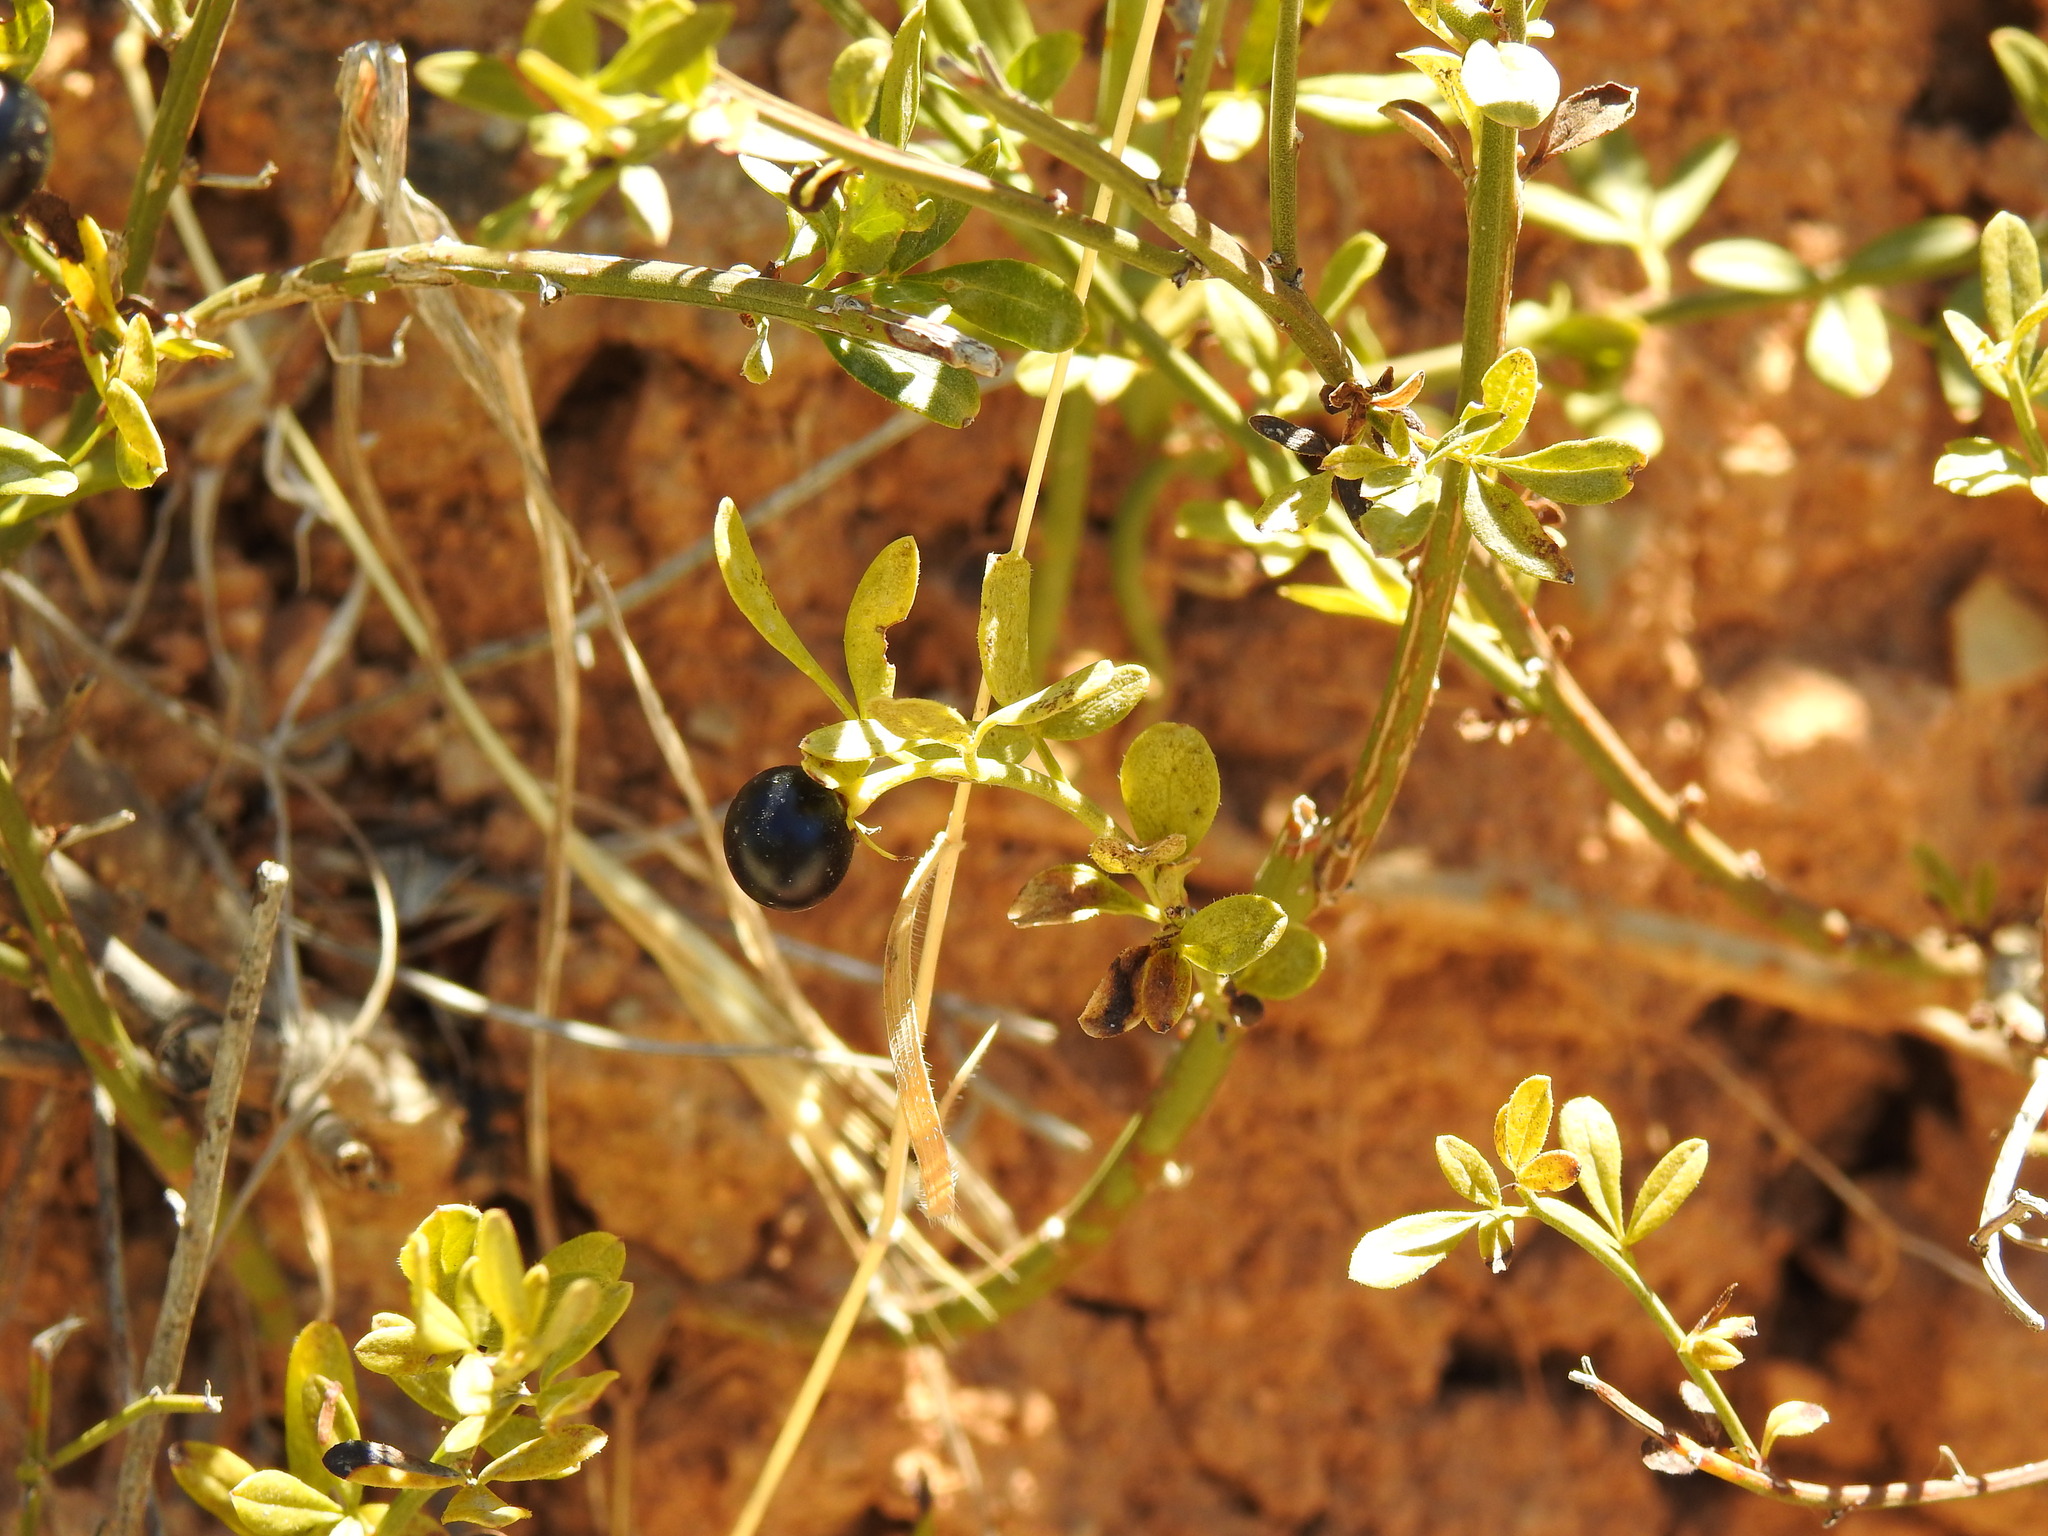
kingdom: Plantae
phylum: Tracheophyta
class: Magnoliopsida
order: Lamiales
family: Oleaceae
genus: Chrysojasminum
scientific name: Chrysojasminum fruticans
